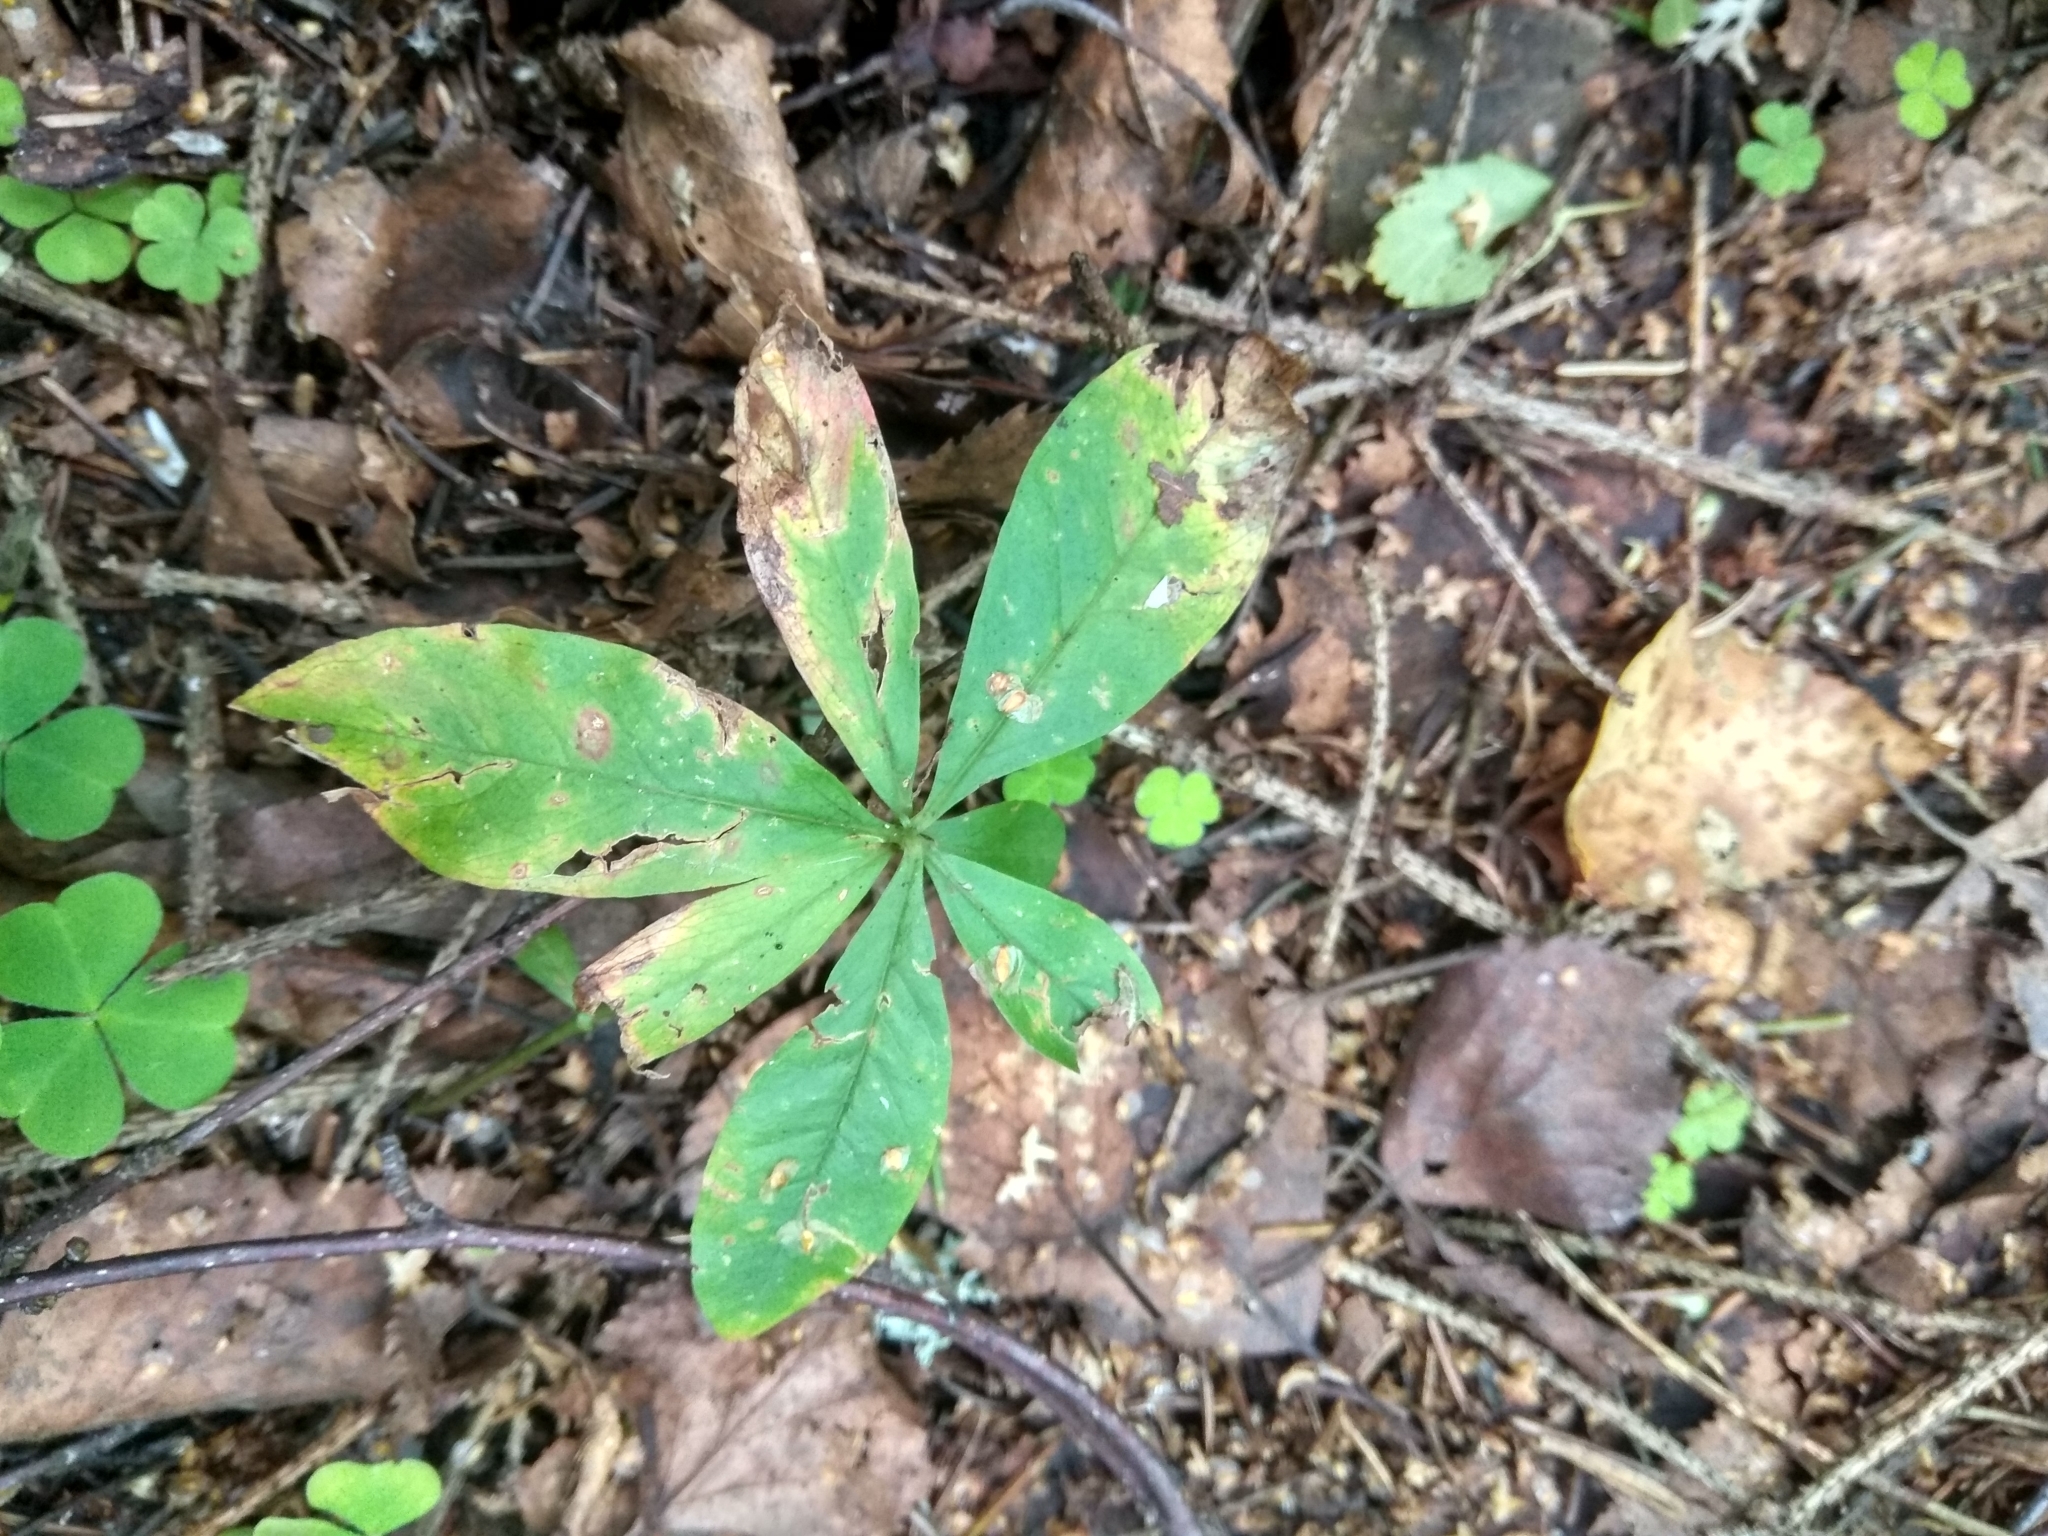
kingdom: Plantae
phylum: Tracheophyta
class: Magnoliopsida
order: Ericales
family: Primulaceae
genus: Lysimachia
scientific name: Lysimachia europaea
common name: Arctic starflower
